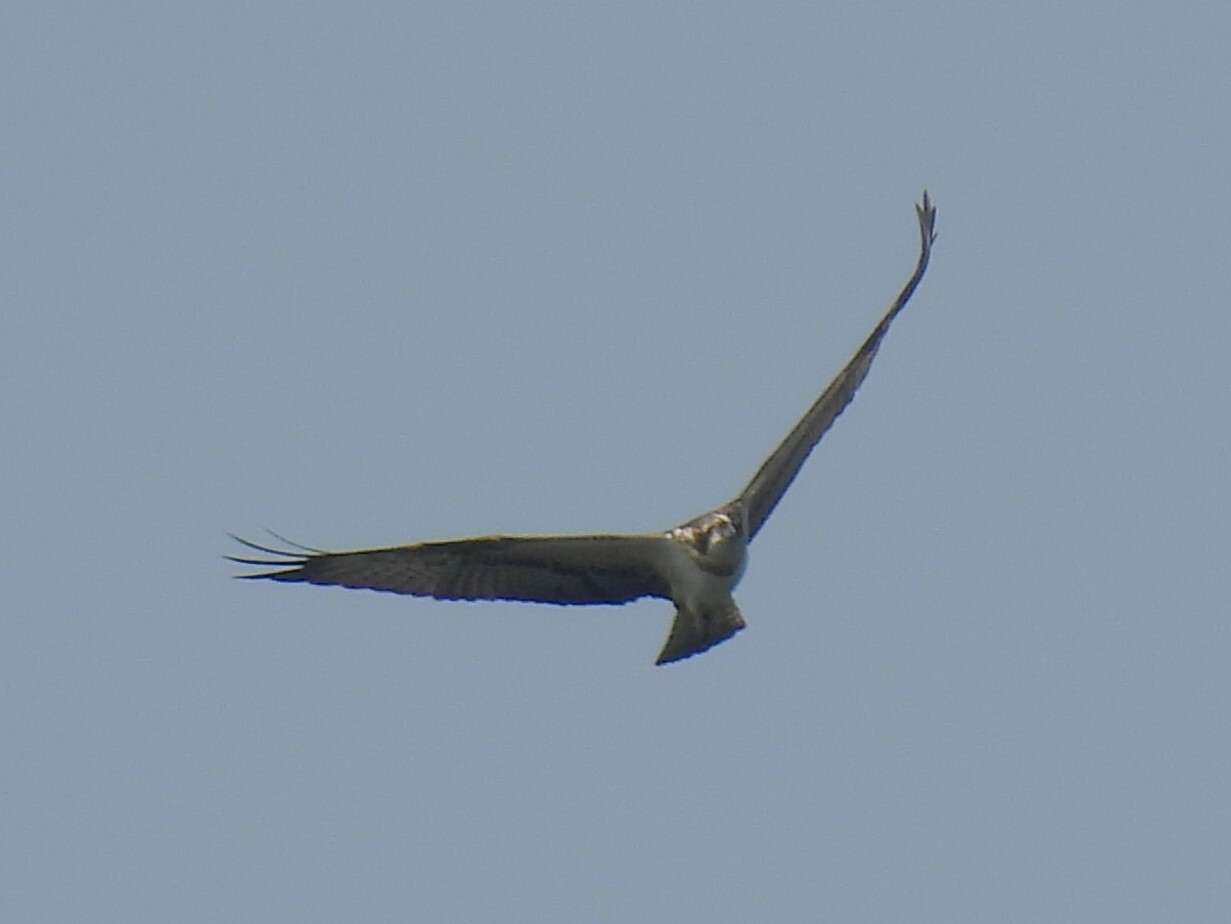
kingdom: Animalia
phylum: Chordata
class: Aves
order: Accipitriformes
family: Pandionidae
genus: Pandion
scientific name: Pandion haliaetus
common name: Osprey
